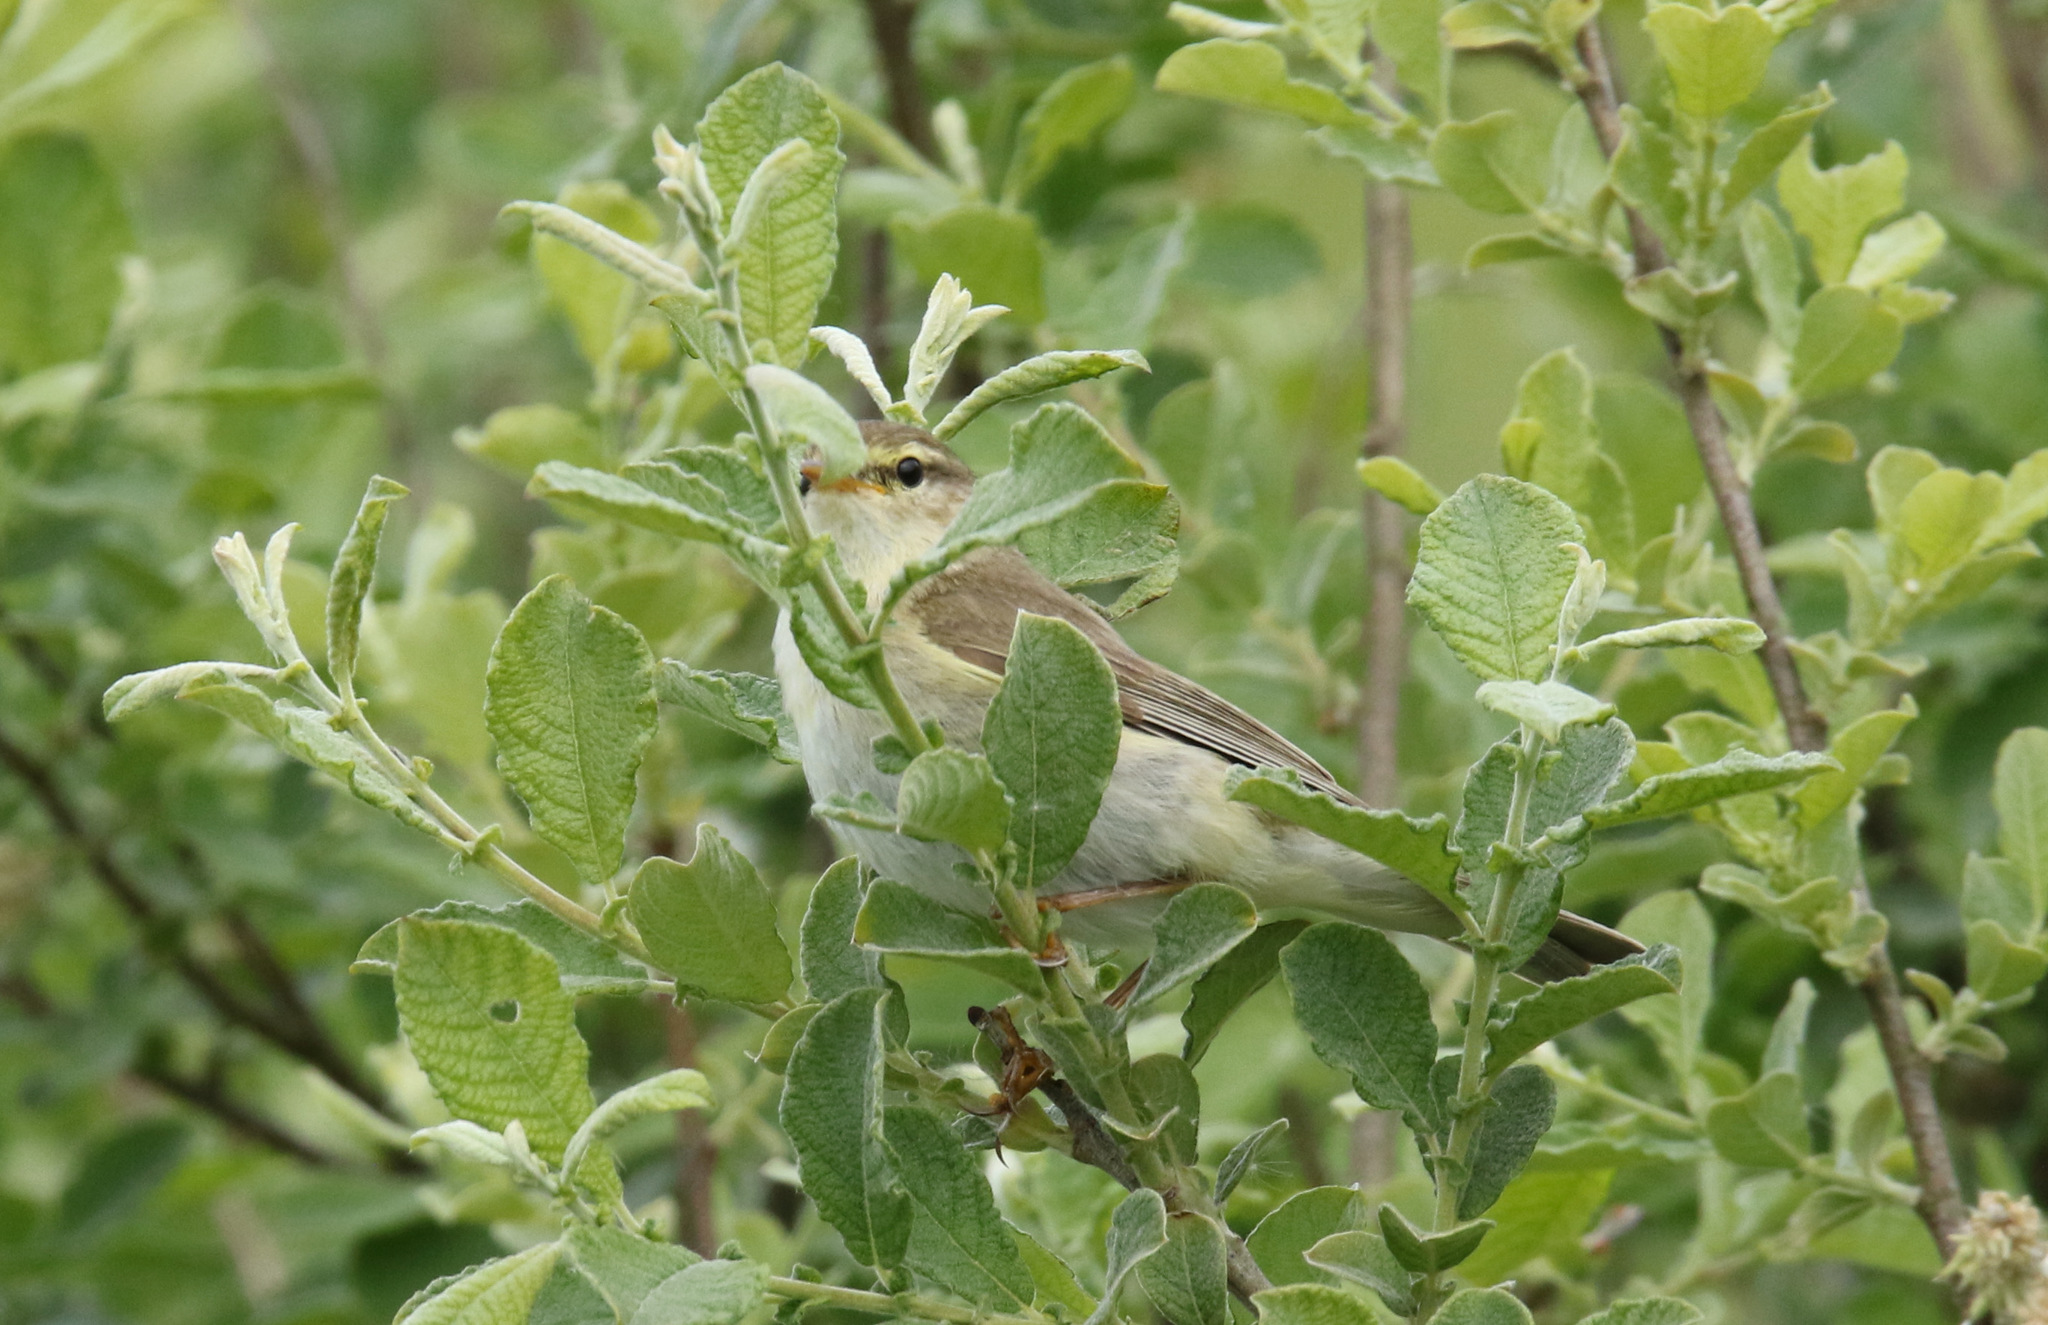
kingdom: Animalia
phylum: Chordata
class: Aves
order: Passeriformes
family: Phylloscopidae
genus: Phylloscopus
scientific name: Phylloscopus trochilus
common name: Willow warbler
